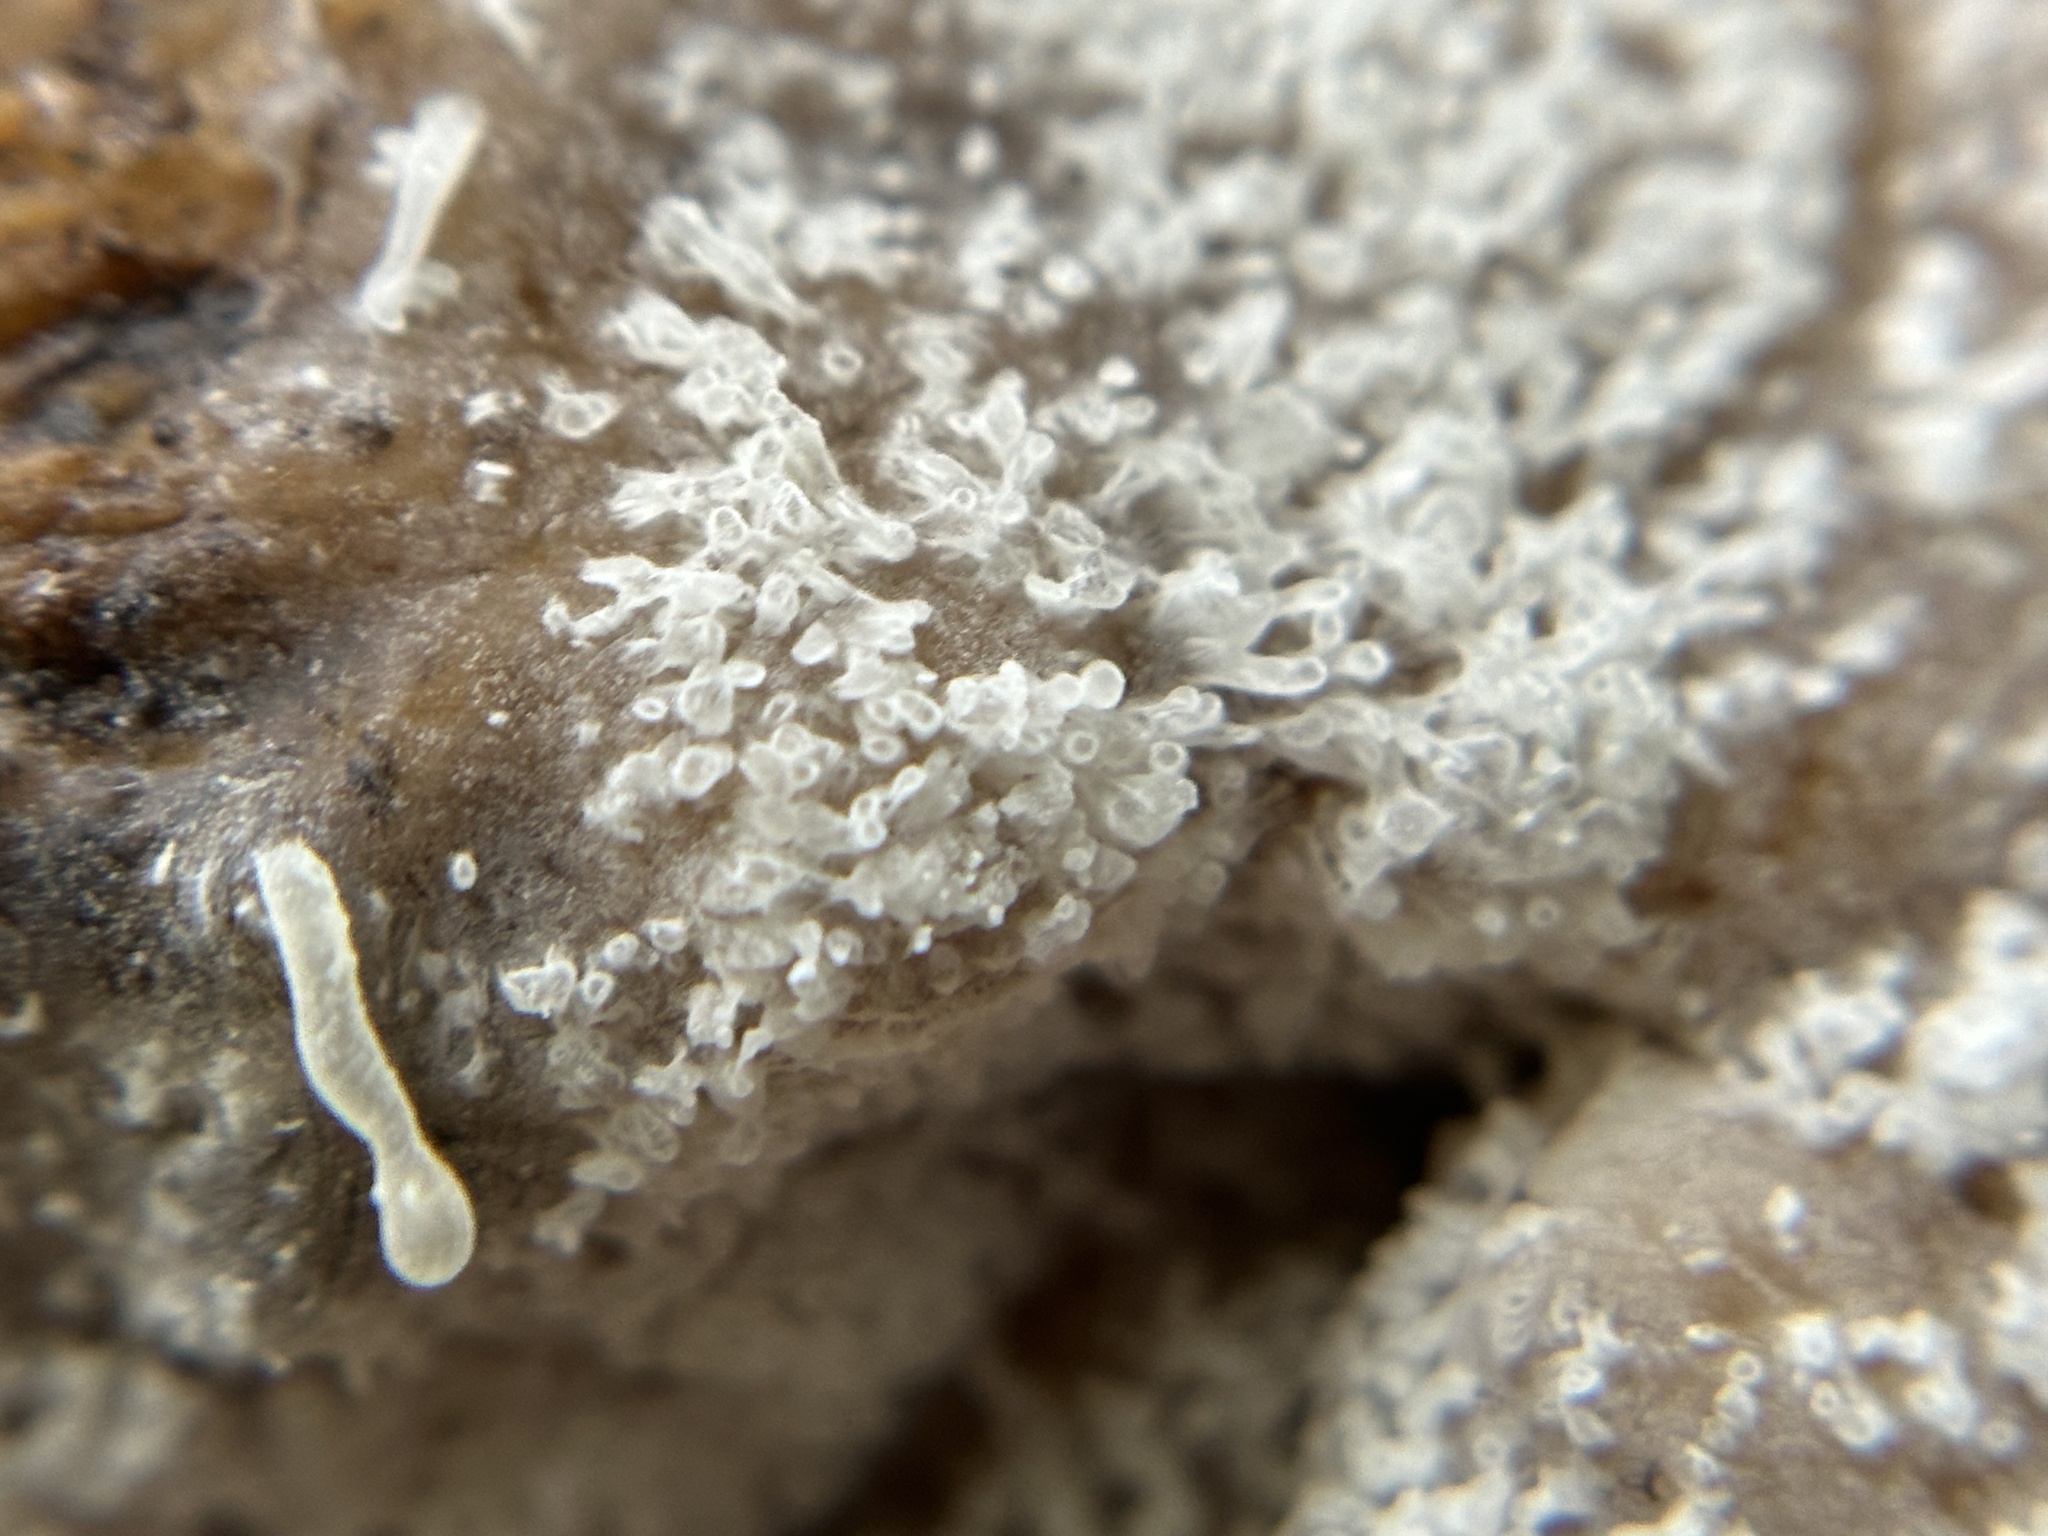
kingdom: Protozoa
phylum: Mycetozoa
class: Protosteliomycetes
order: Ceratiomyxales
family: Ceratiomyxaceae
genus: Ceratiomyxa
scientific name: Ceratiomyxa fruticulosa
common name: Honeycomb coral slime mold
